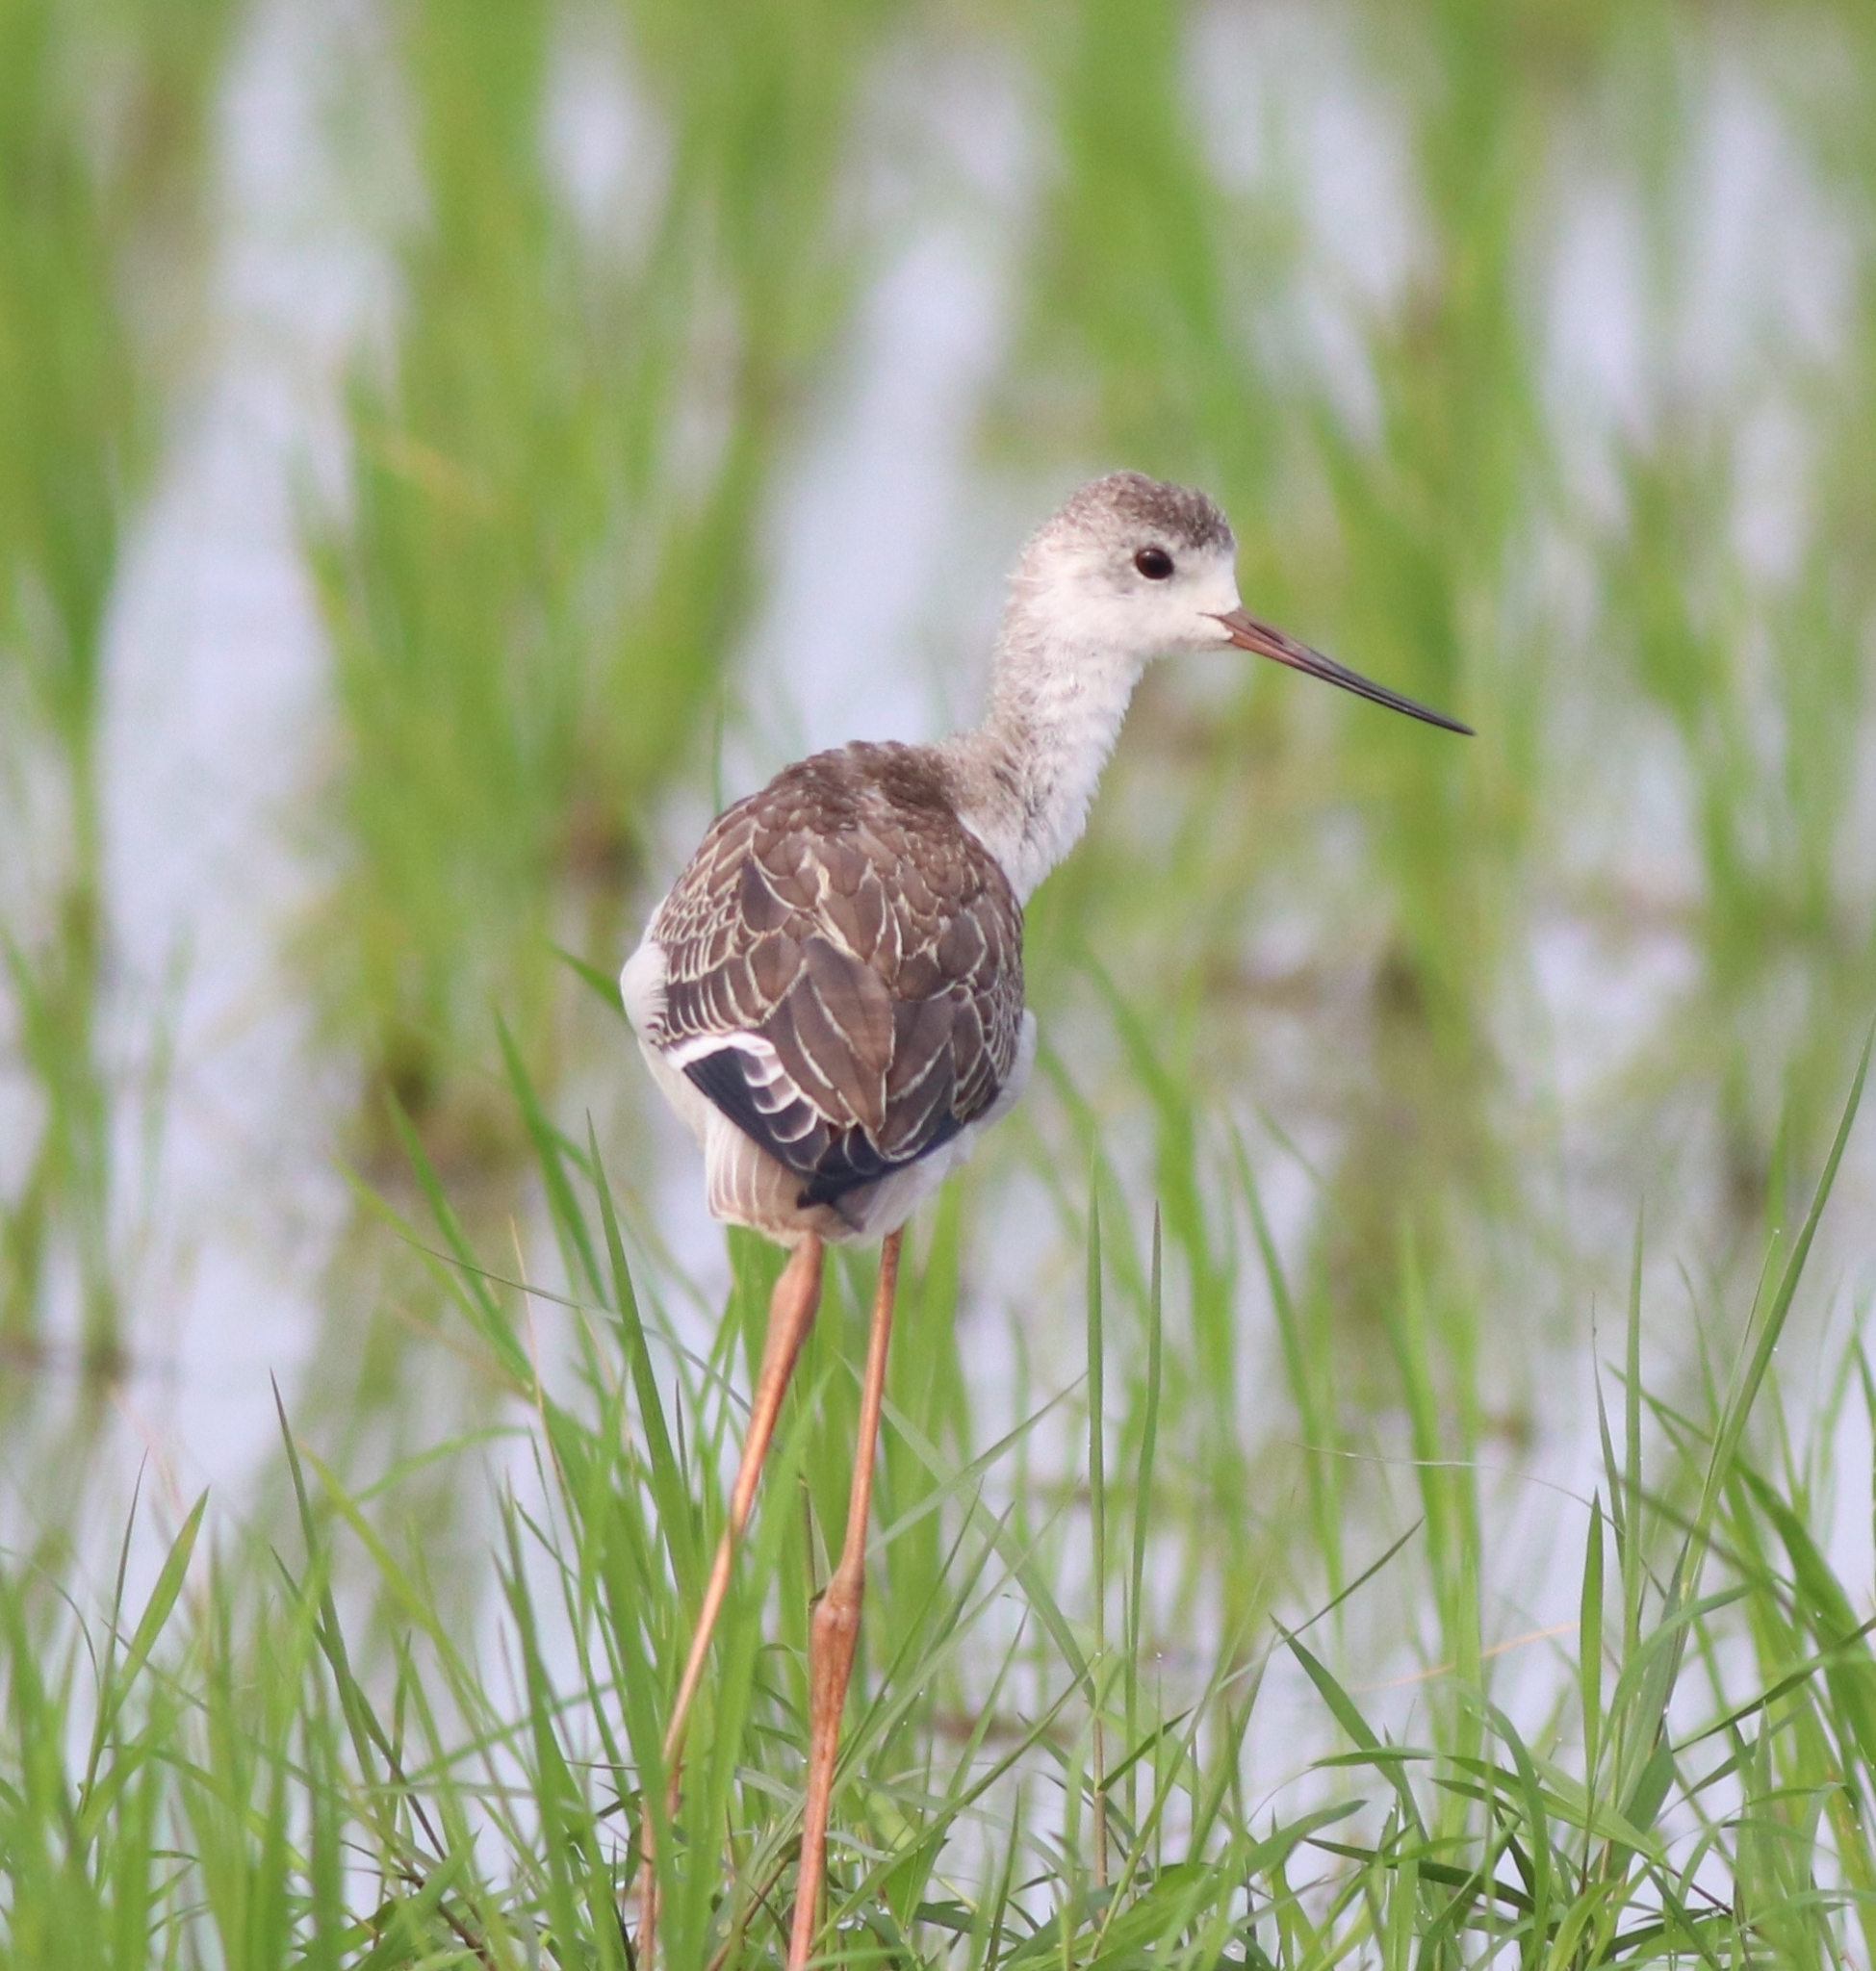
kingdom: Animalia
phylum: Chordata
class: Aves
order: Charadriiformes
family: Recurvirostridae
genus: Himantopus
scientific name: Himantopus himantopus
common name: Black-winged stilt
